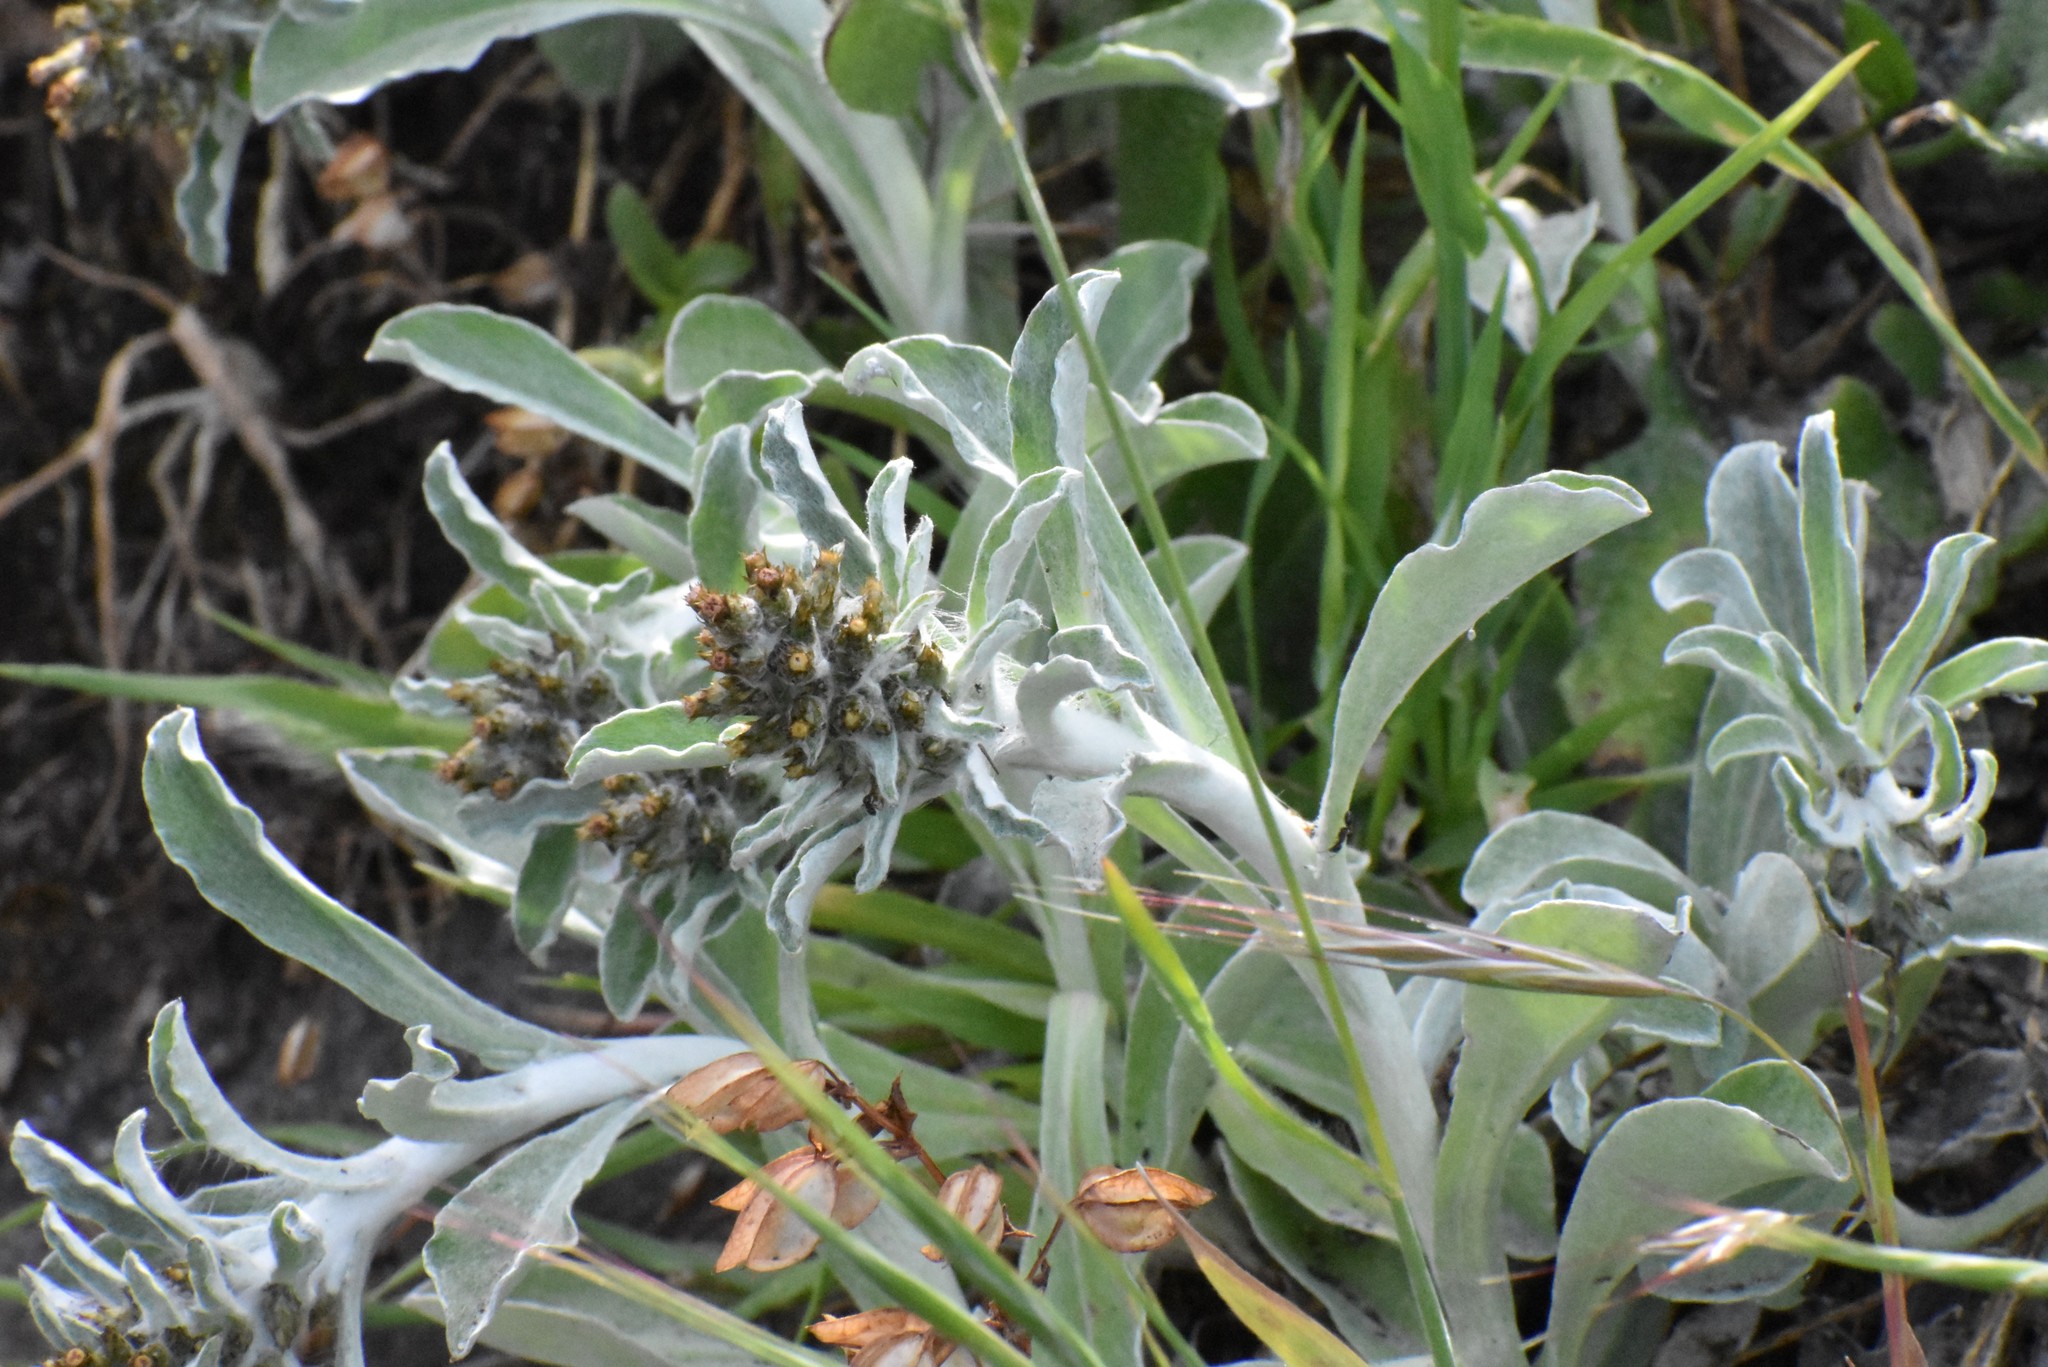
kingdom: Plantae
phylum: Tracheophyta
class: Magnoliopsida
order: Asterales
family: Asteraceae
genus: Gamochaeta
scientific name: Gamochaeta ustulata
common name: Pacific cudweed
